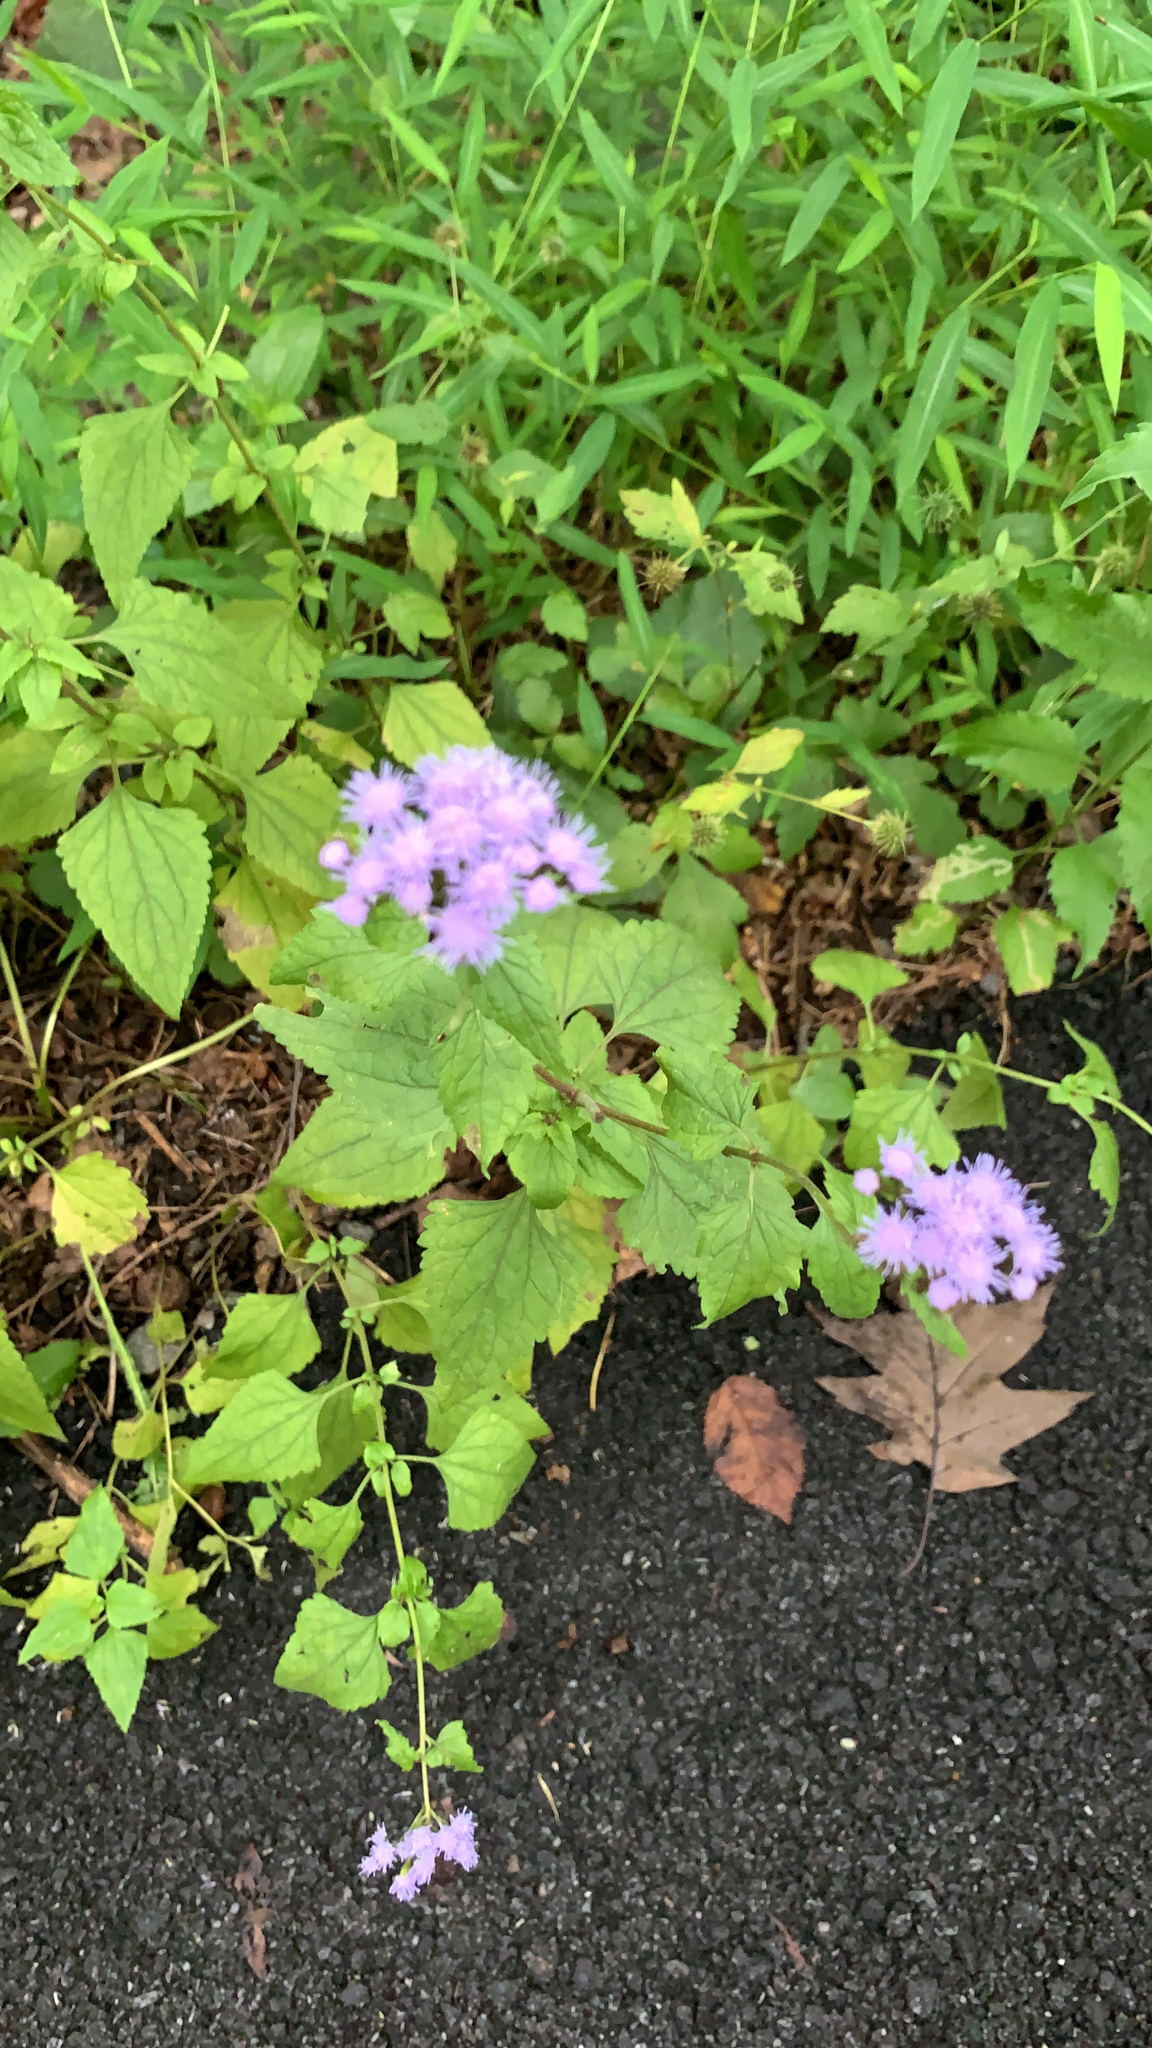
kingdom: Plantae
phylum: Tracheophyta
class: Magnoliopsida
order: Asterales
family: Asteraceae
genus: Conoclinium
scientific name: Conoclinium coelestinum
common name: Blue mistflower
